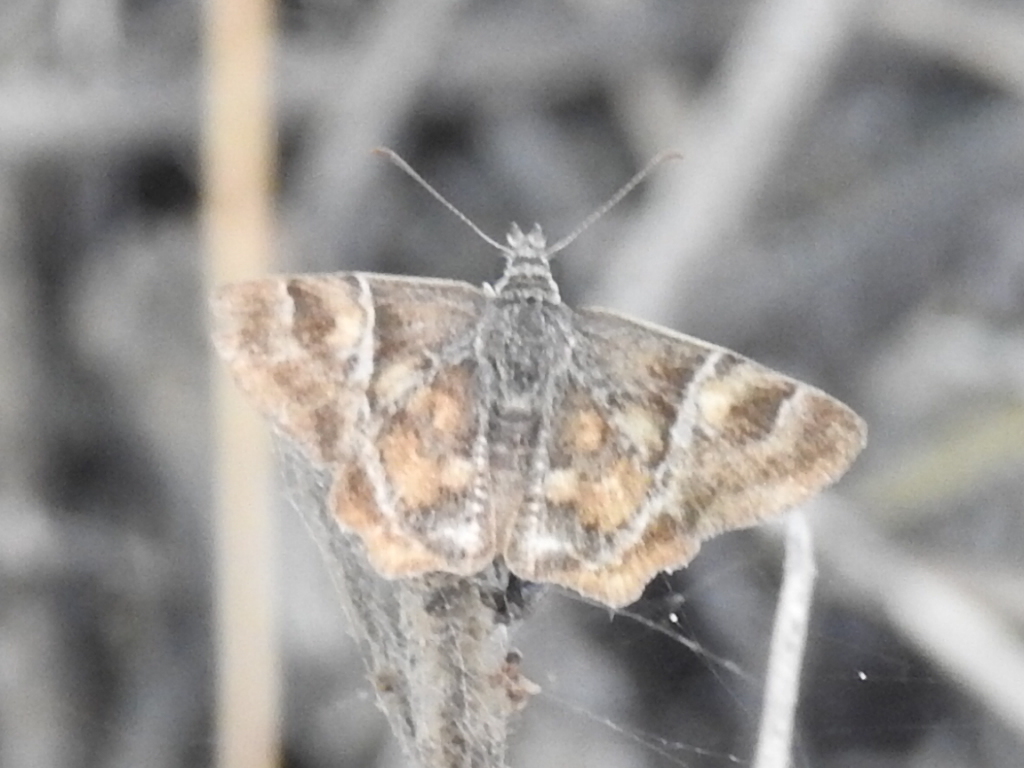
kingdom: Animalia
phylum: Arthropoda
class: Insecta
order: Lepidoptera
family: Hesperiidae
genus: Systasea
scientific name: Systasea pulverulenta
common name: Texas powdered skipper
